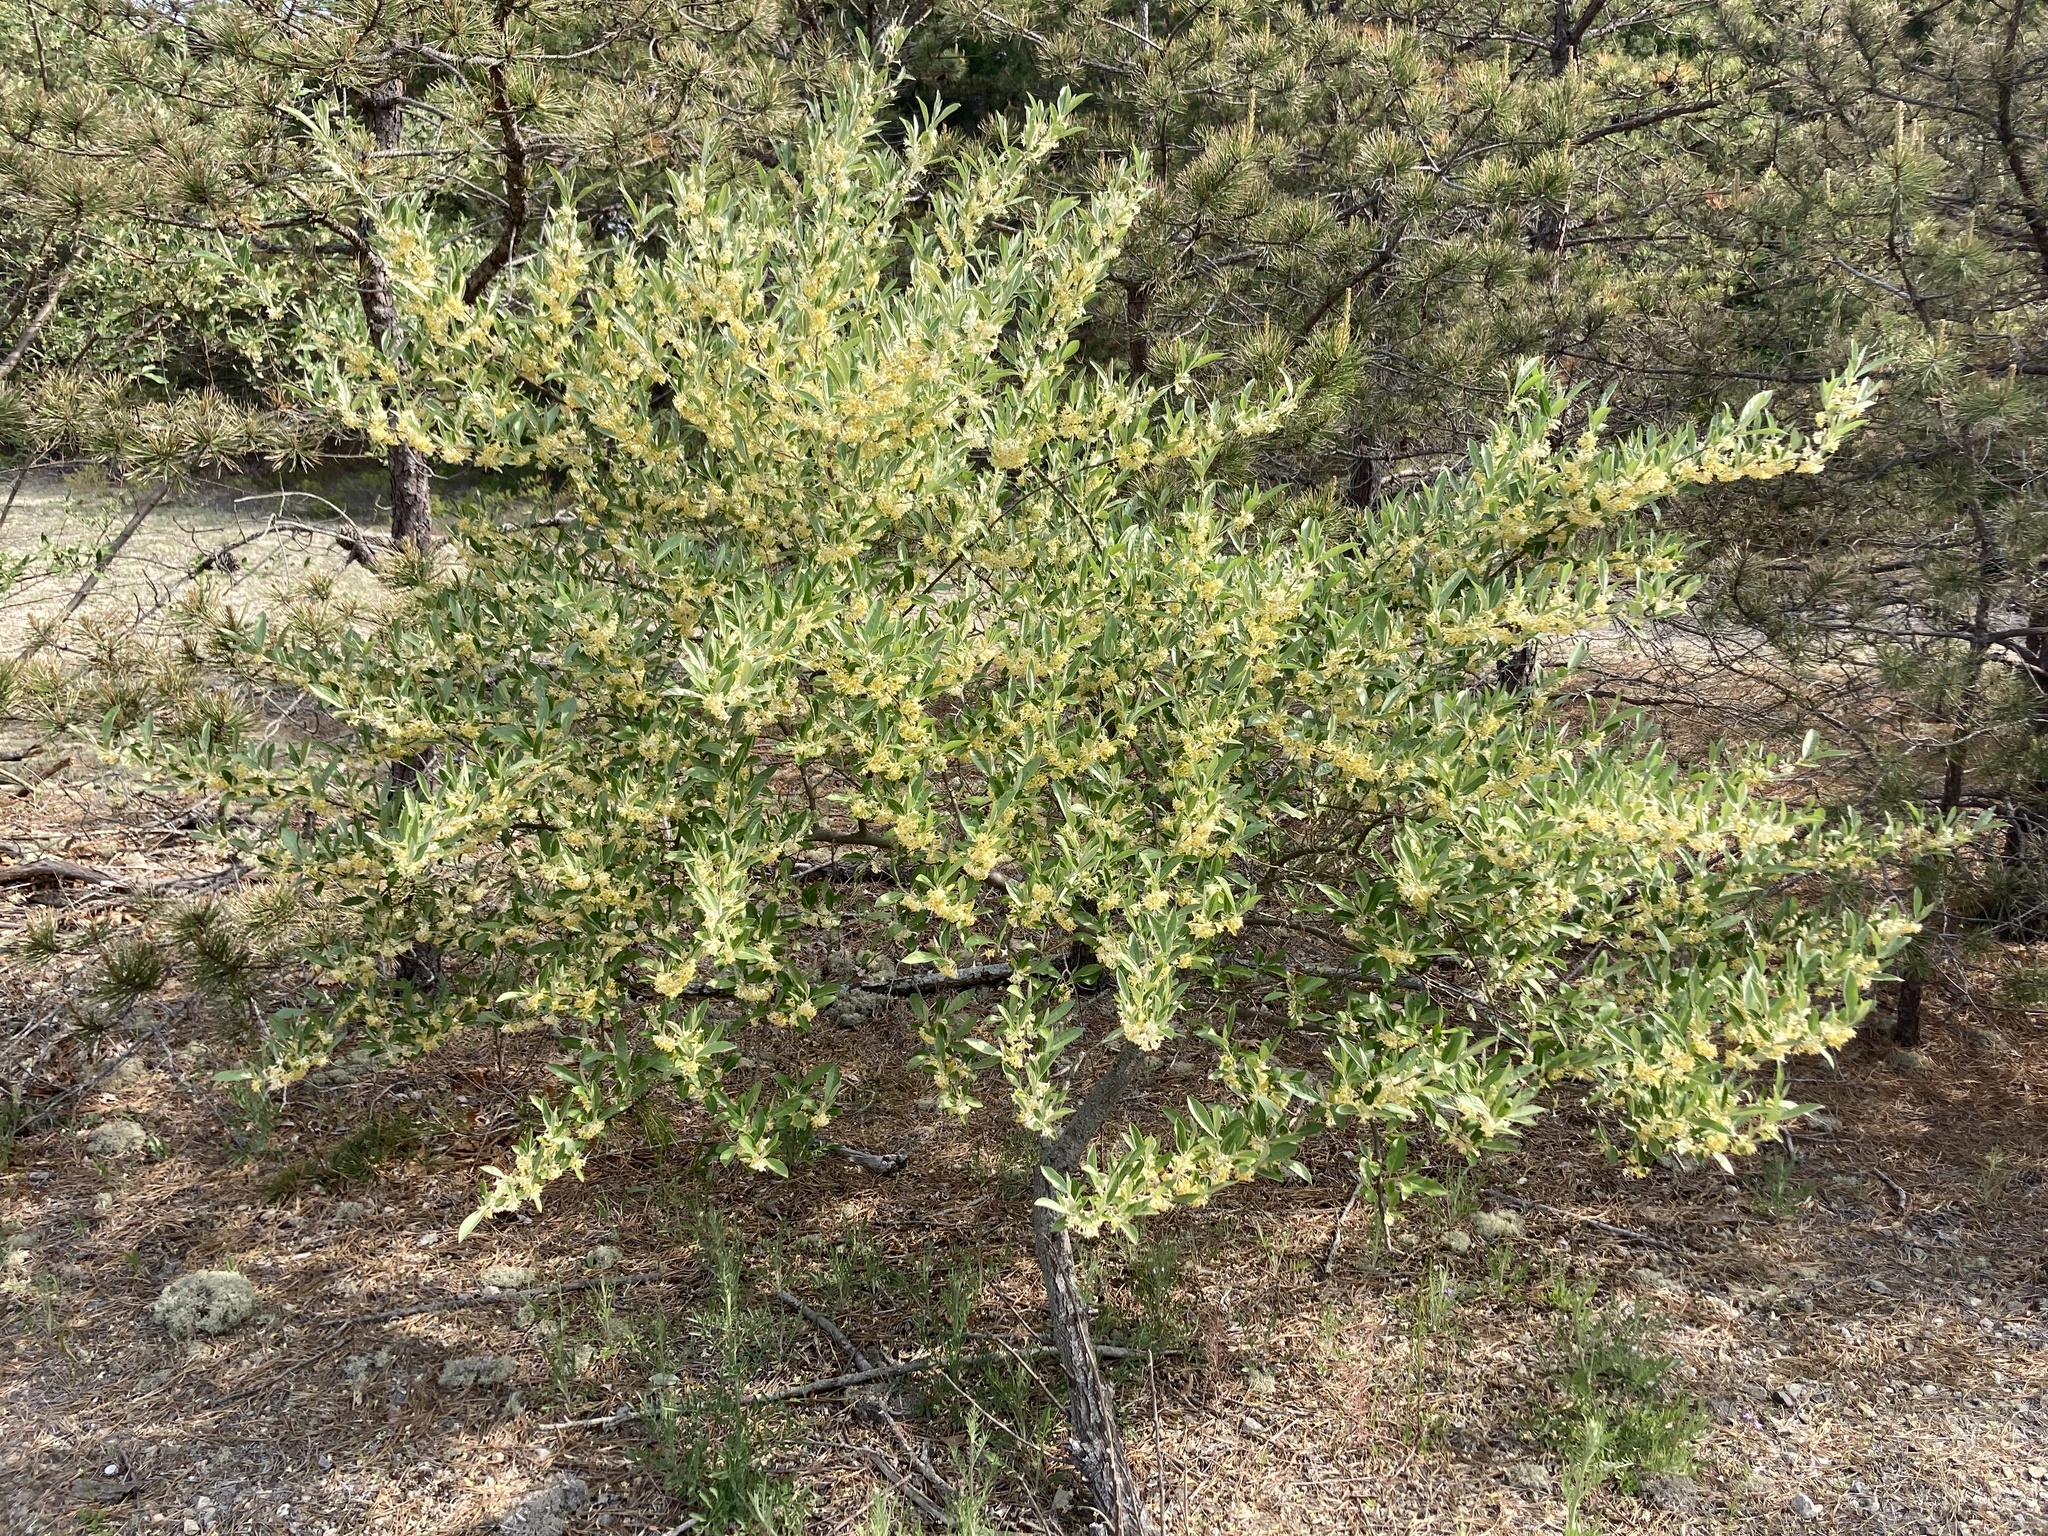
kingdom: Plantae
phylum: Tracheophyta
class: Magnoliopsida
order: Rosales
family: Elaeagnaceae
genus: Elaeagnus
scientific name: Elaeagnus umbellata
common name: Autumn olive
